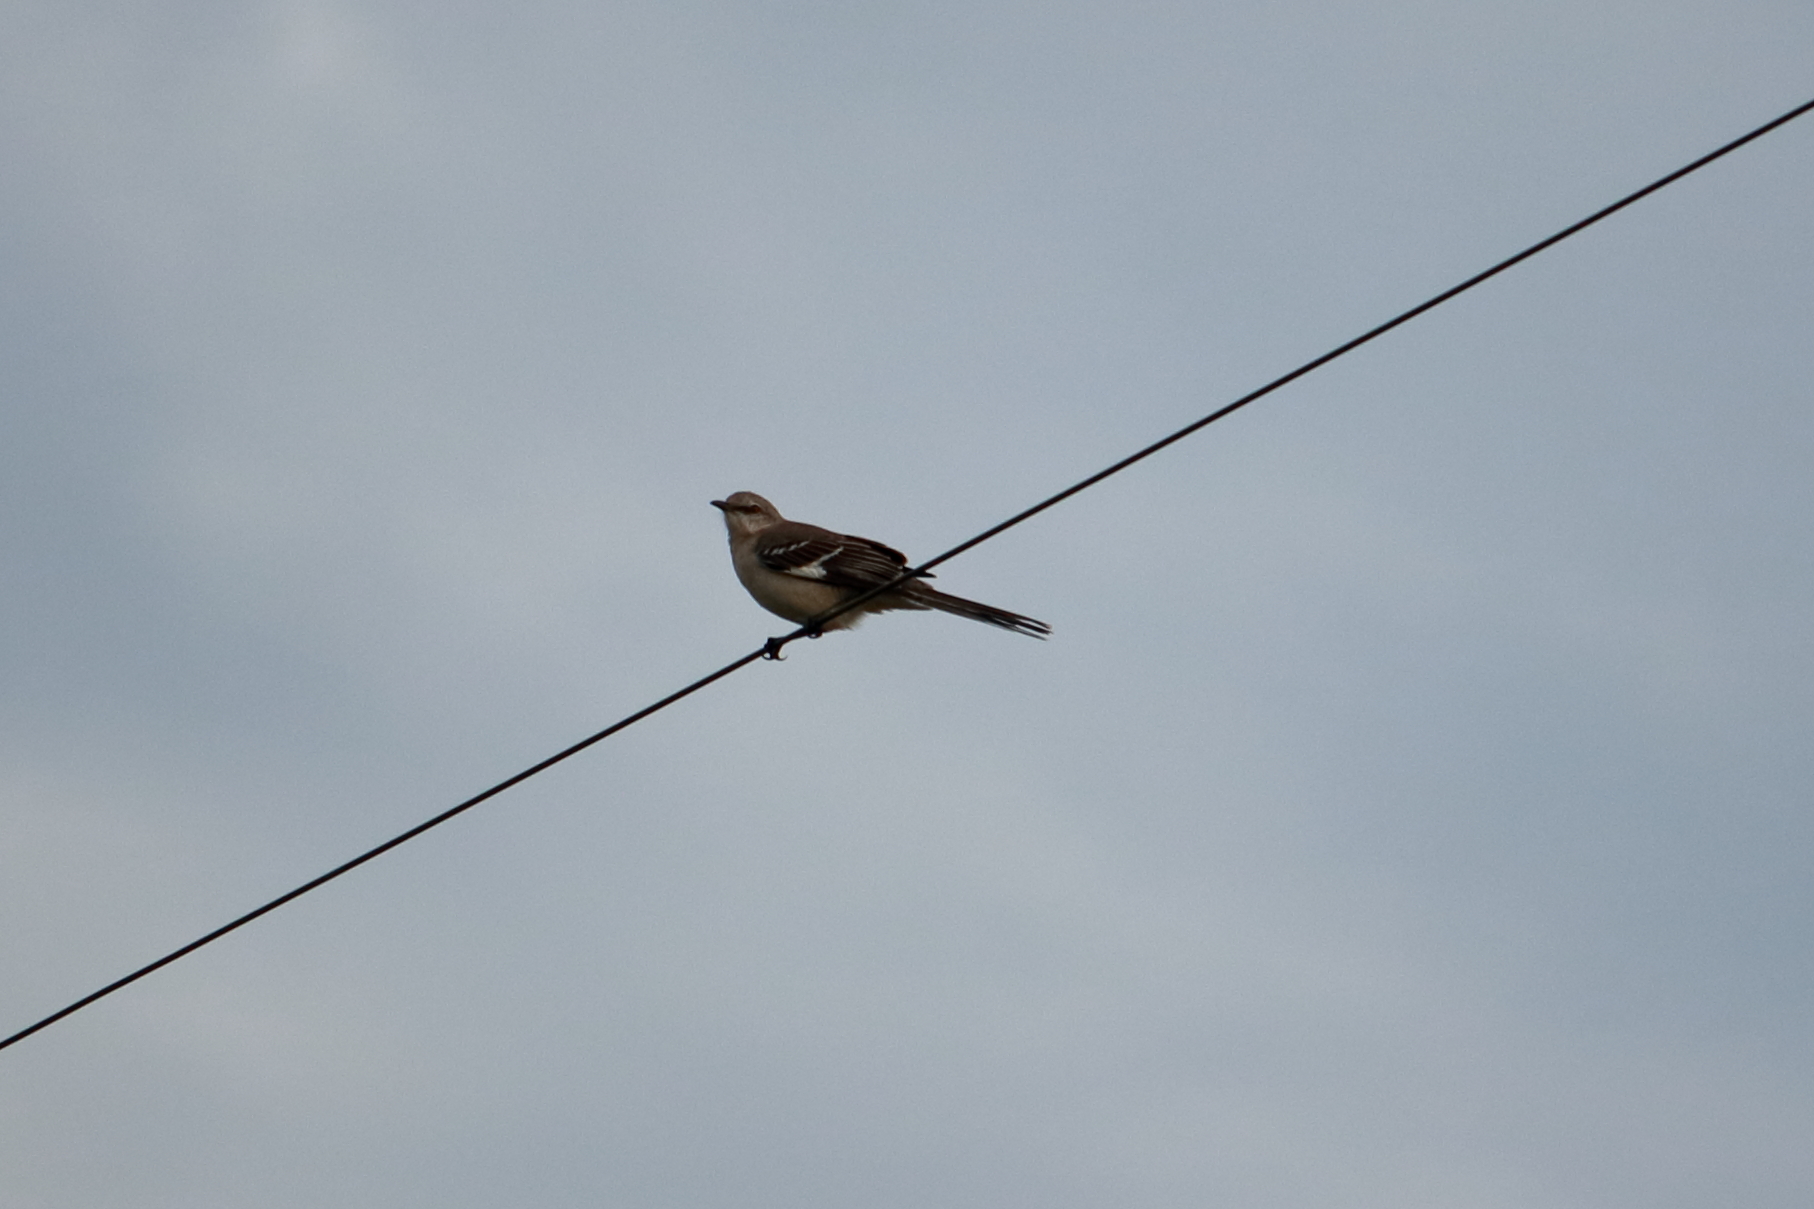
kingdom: Animalia
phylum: Chordata
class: Aves
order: Passeriformes
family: Mimidae
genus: Mimus
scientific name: Mimus polyglottos
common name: Northern mockingbird
